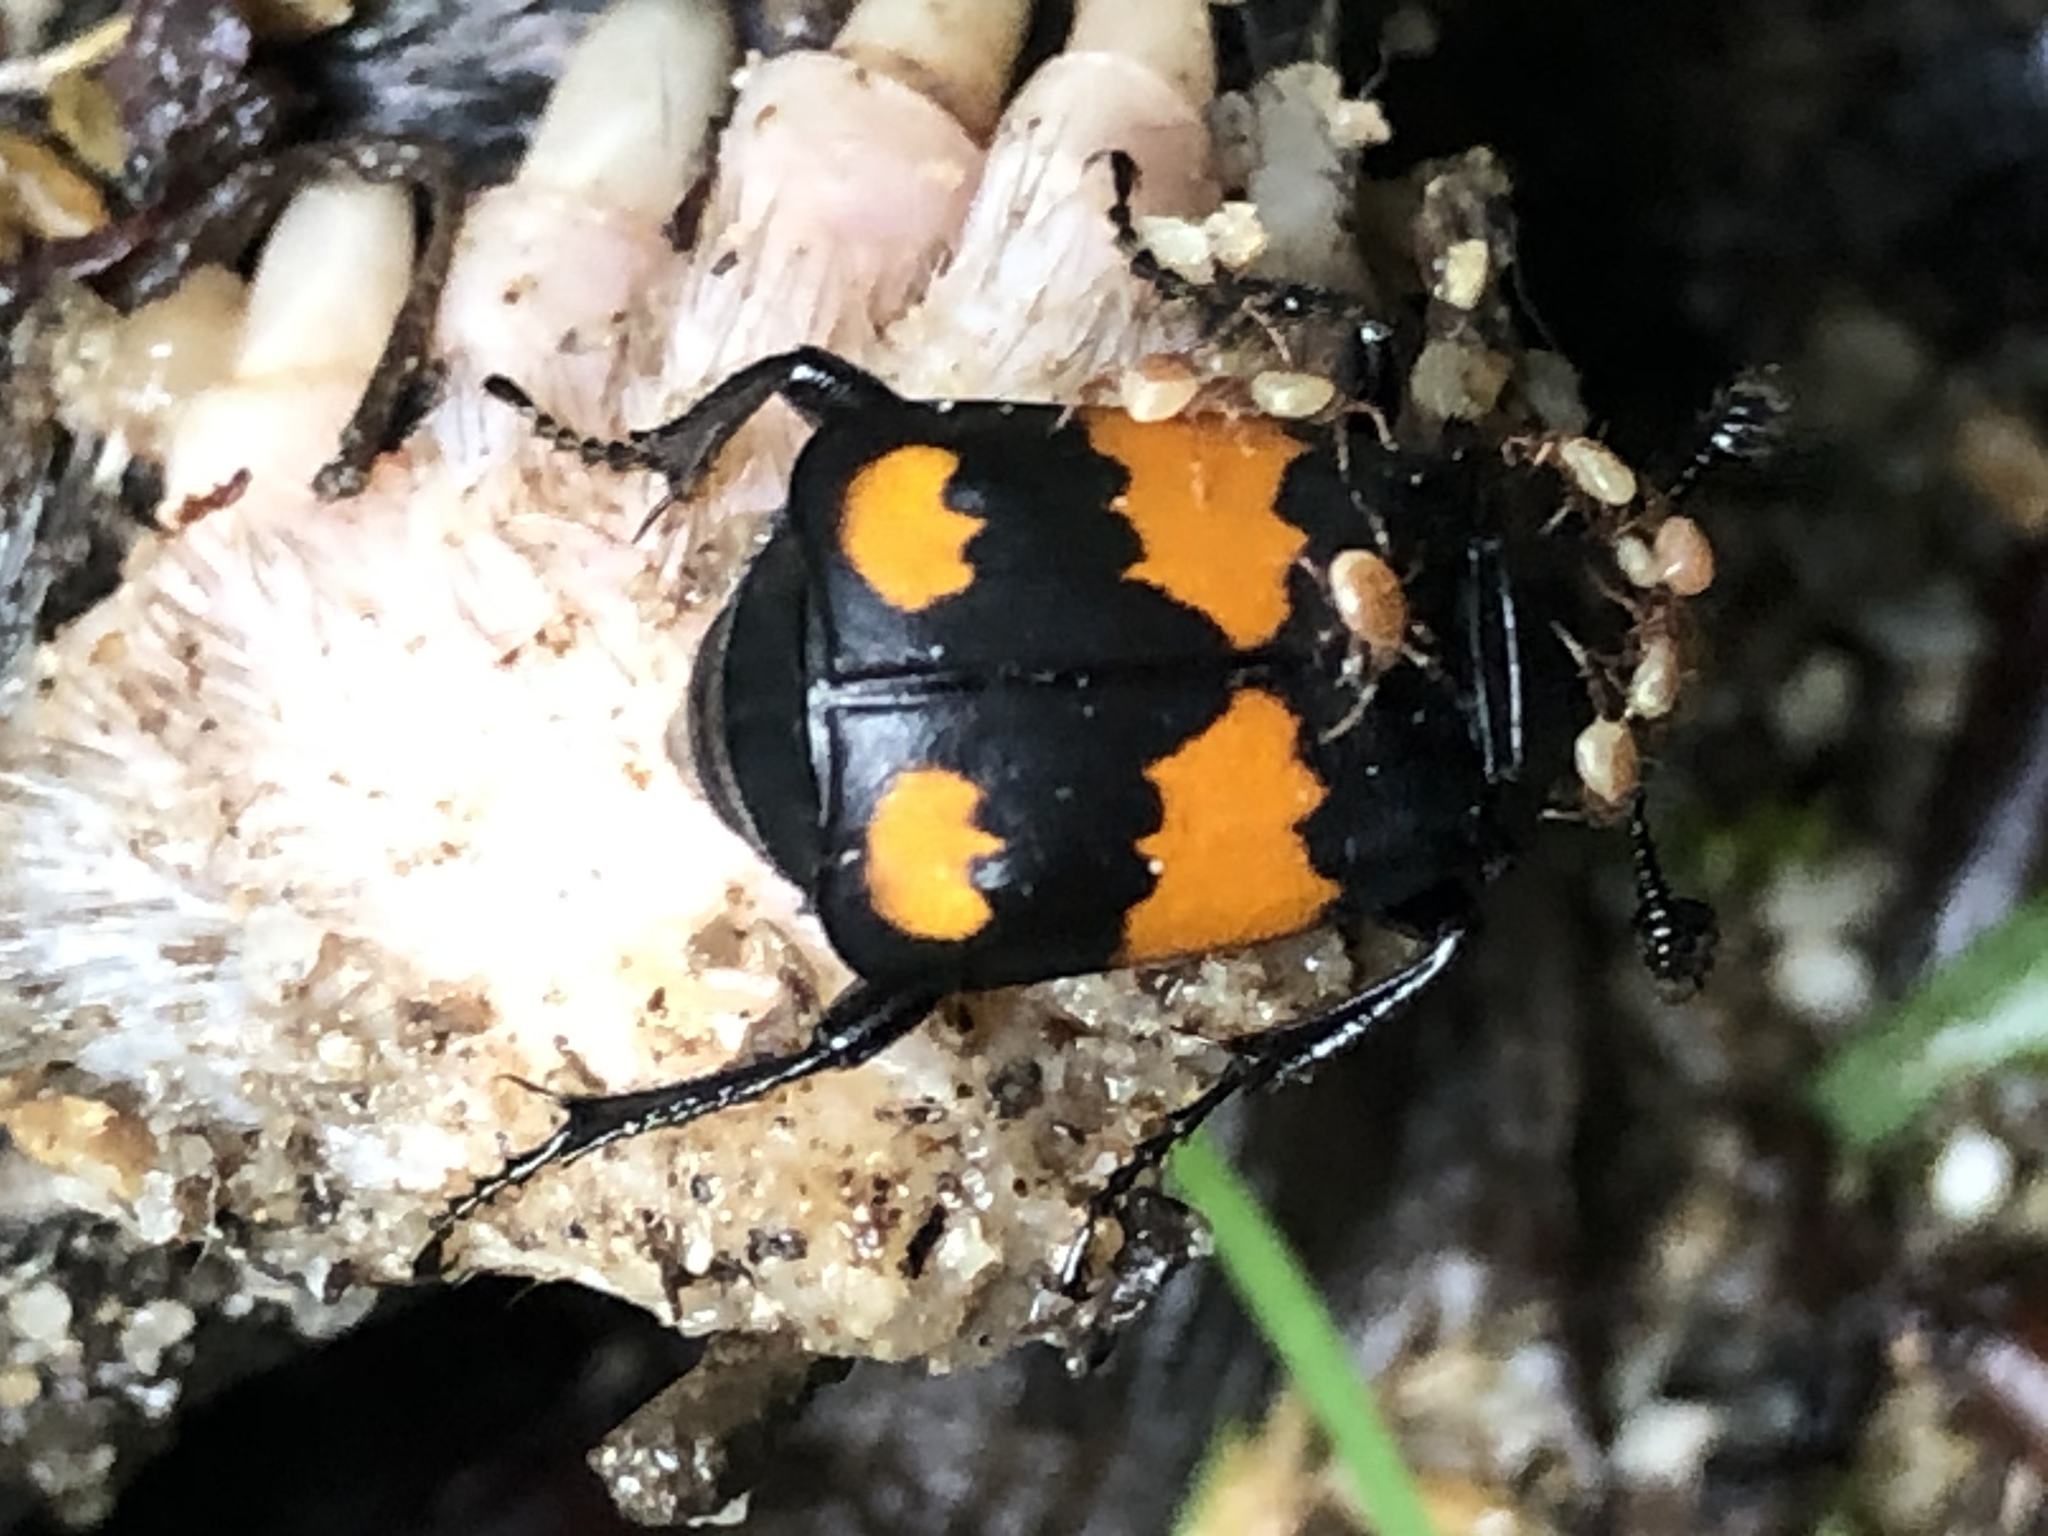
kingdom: Animalia
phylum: Arthropoda
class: Insecta
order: Coleoptera
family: Staphylinidae
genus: Nicrophorus
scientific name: Nicrophorus vespilloides
